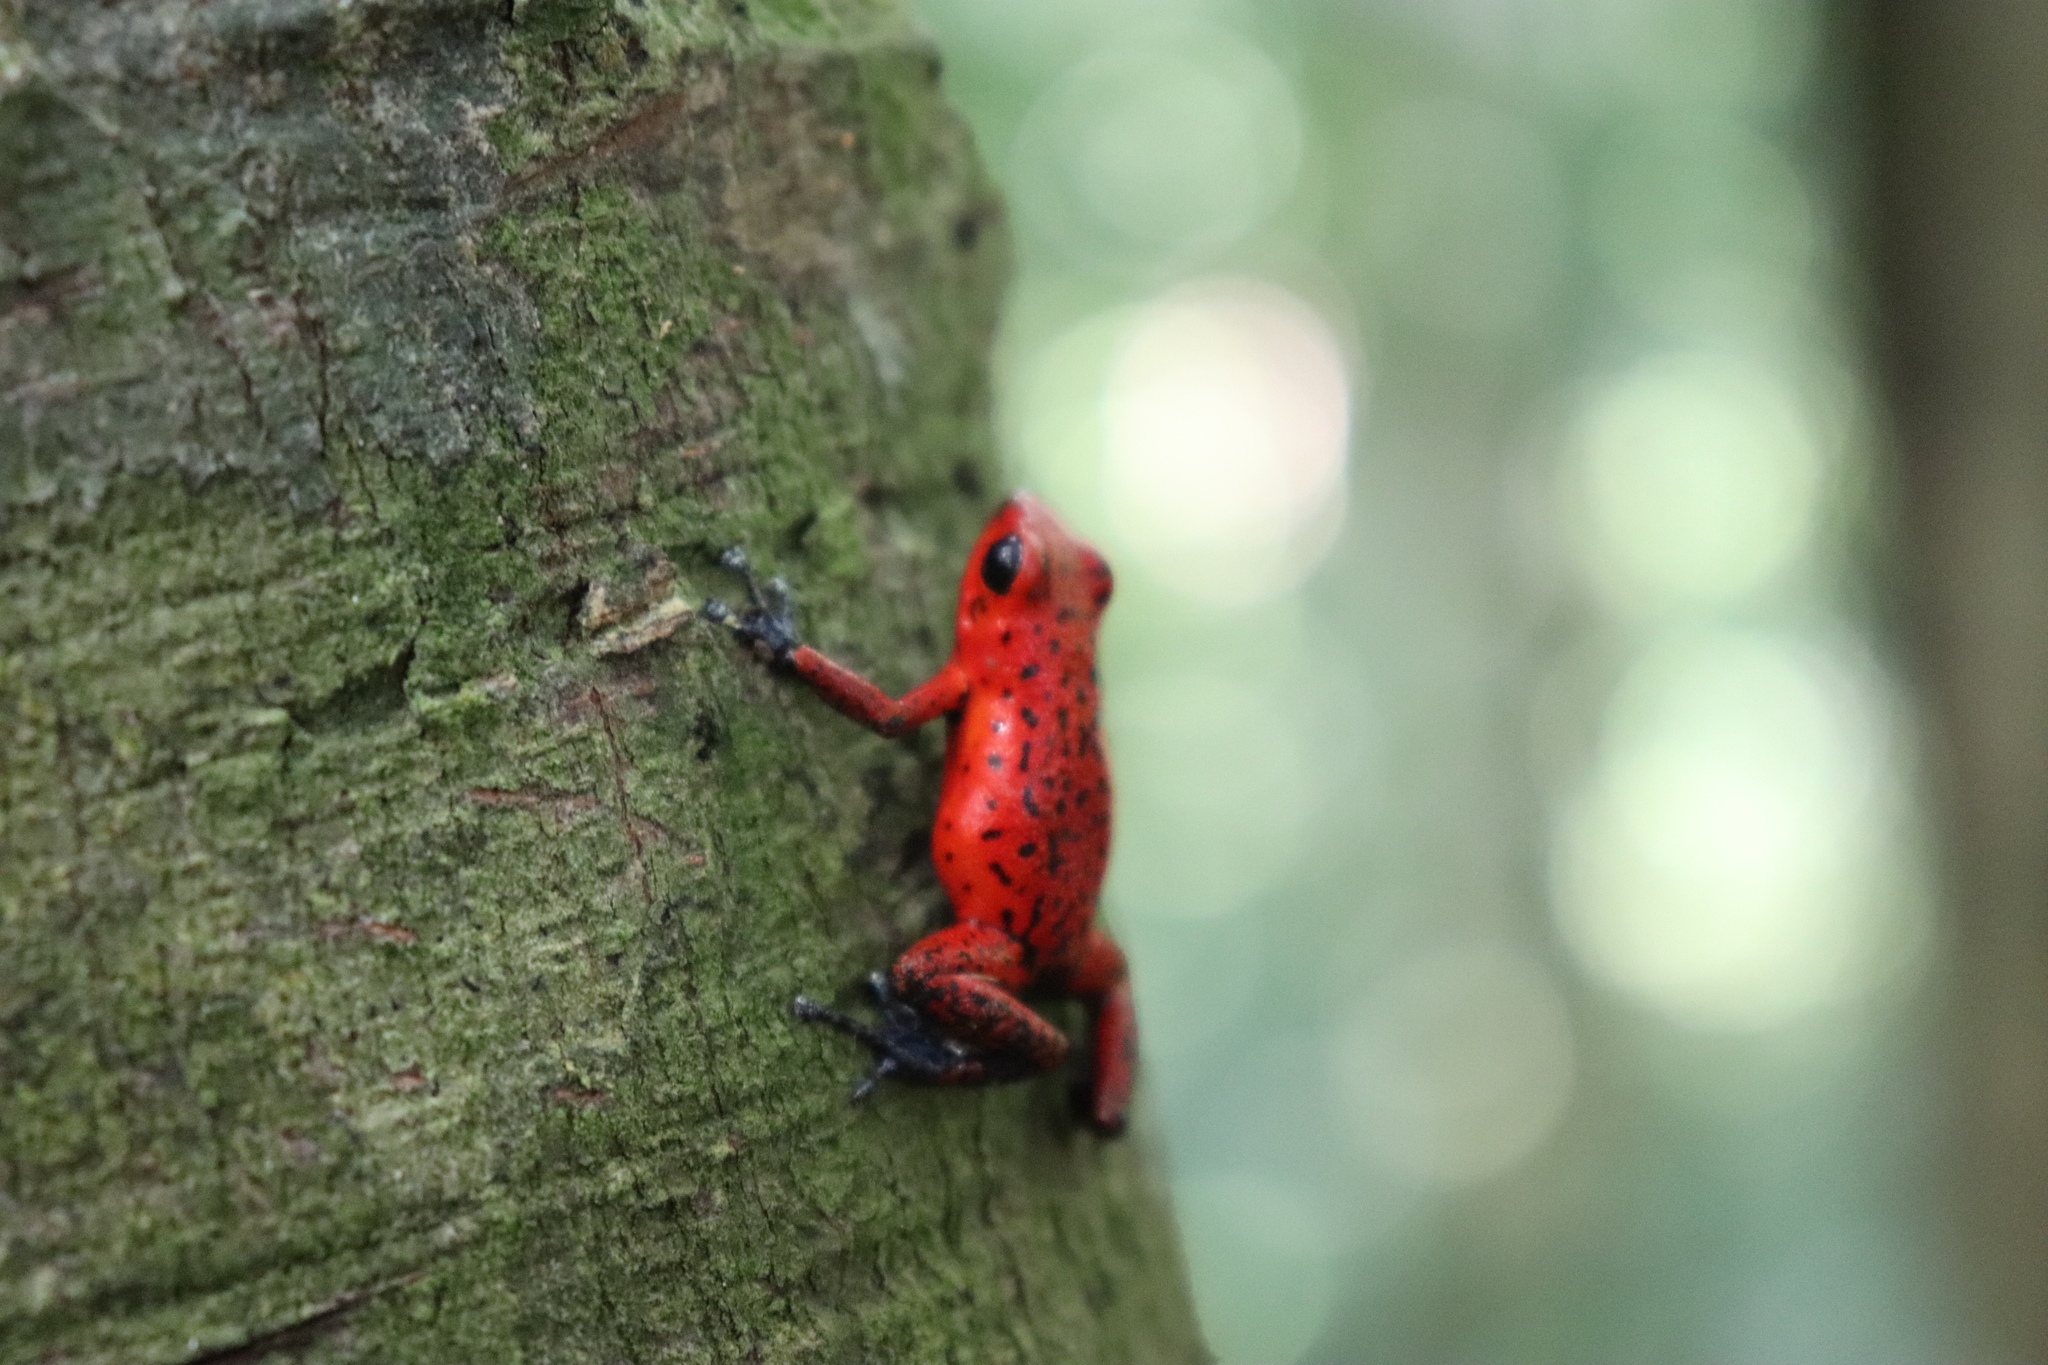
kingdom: Animalia
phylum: Chordata
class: Amphibia
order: Anura
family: Dendrobatidae
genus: Oophaga
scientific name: Oophaga pumilio
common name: Flaming poison frog
